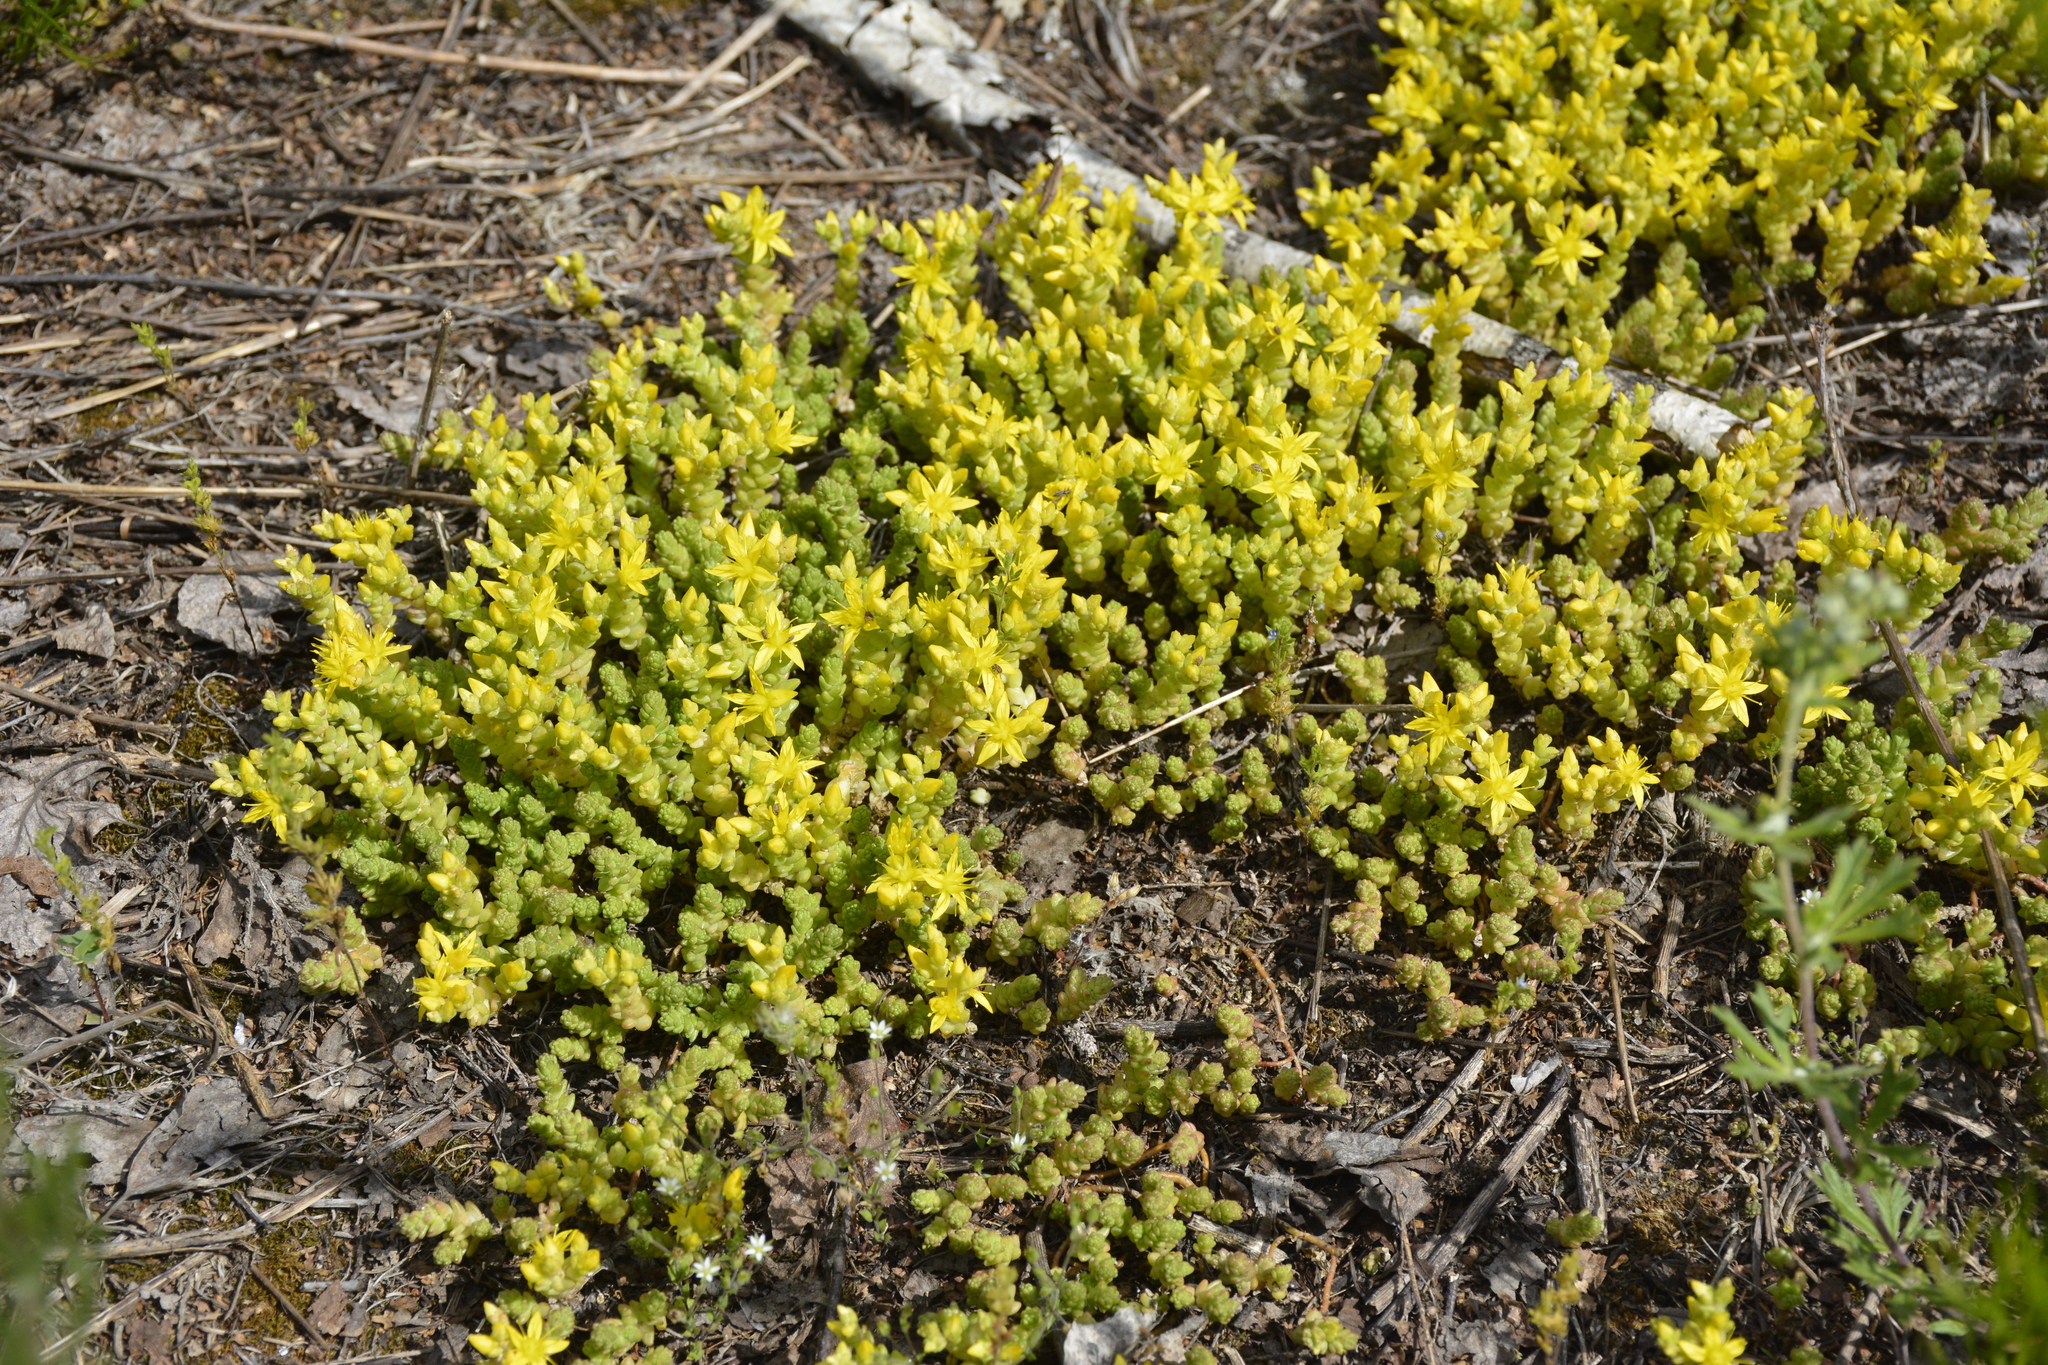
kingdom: Plantae
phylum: Tracheophyta
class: Magnoliopsida
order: Saxifragales
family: Crassulaceae
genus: Sedum
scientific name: Sedum acre
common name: Biting stonecrop
